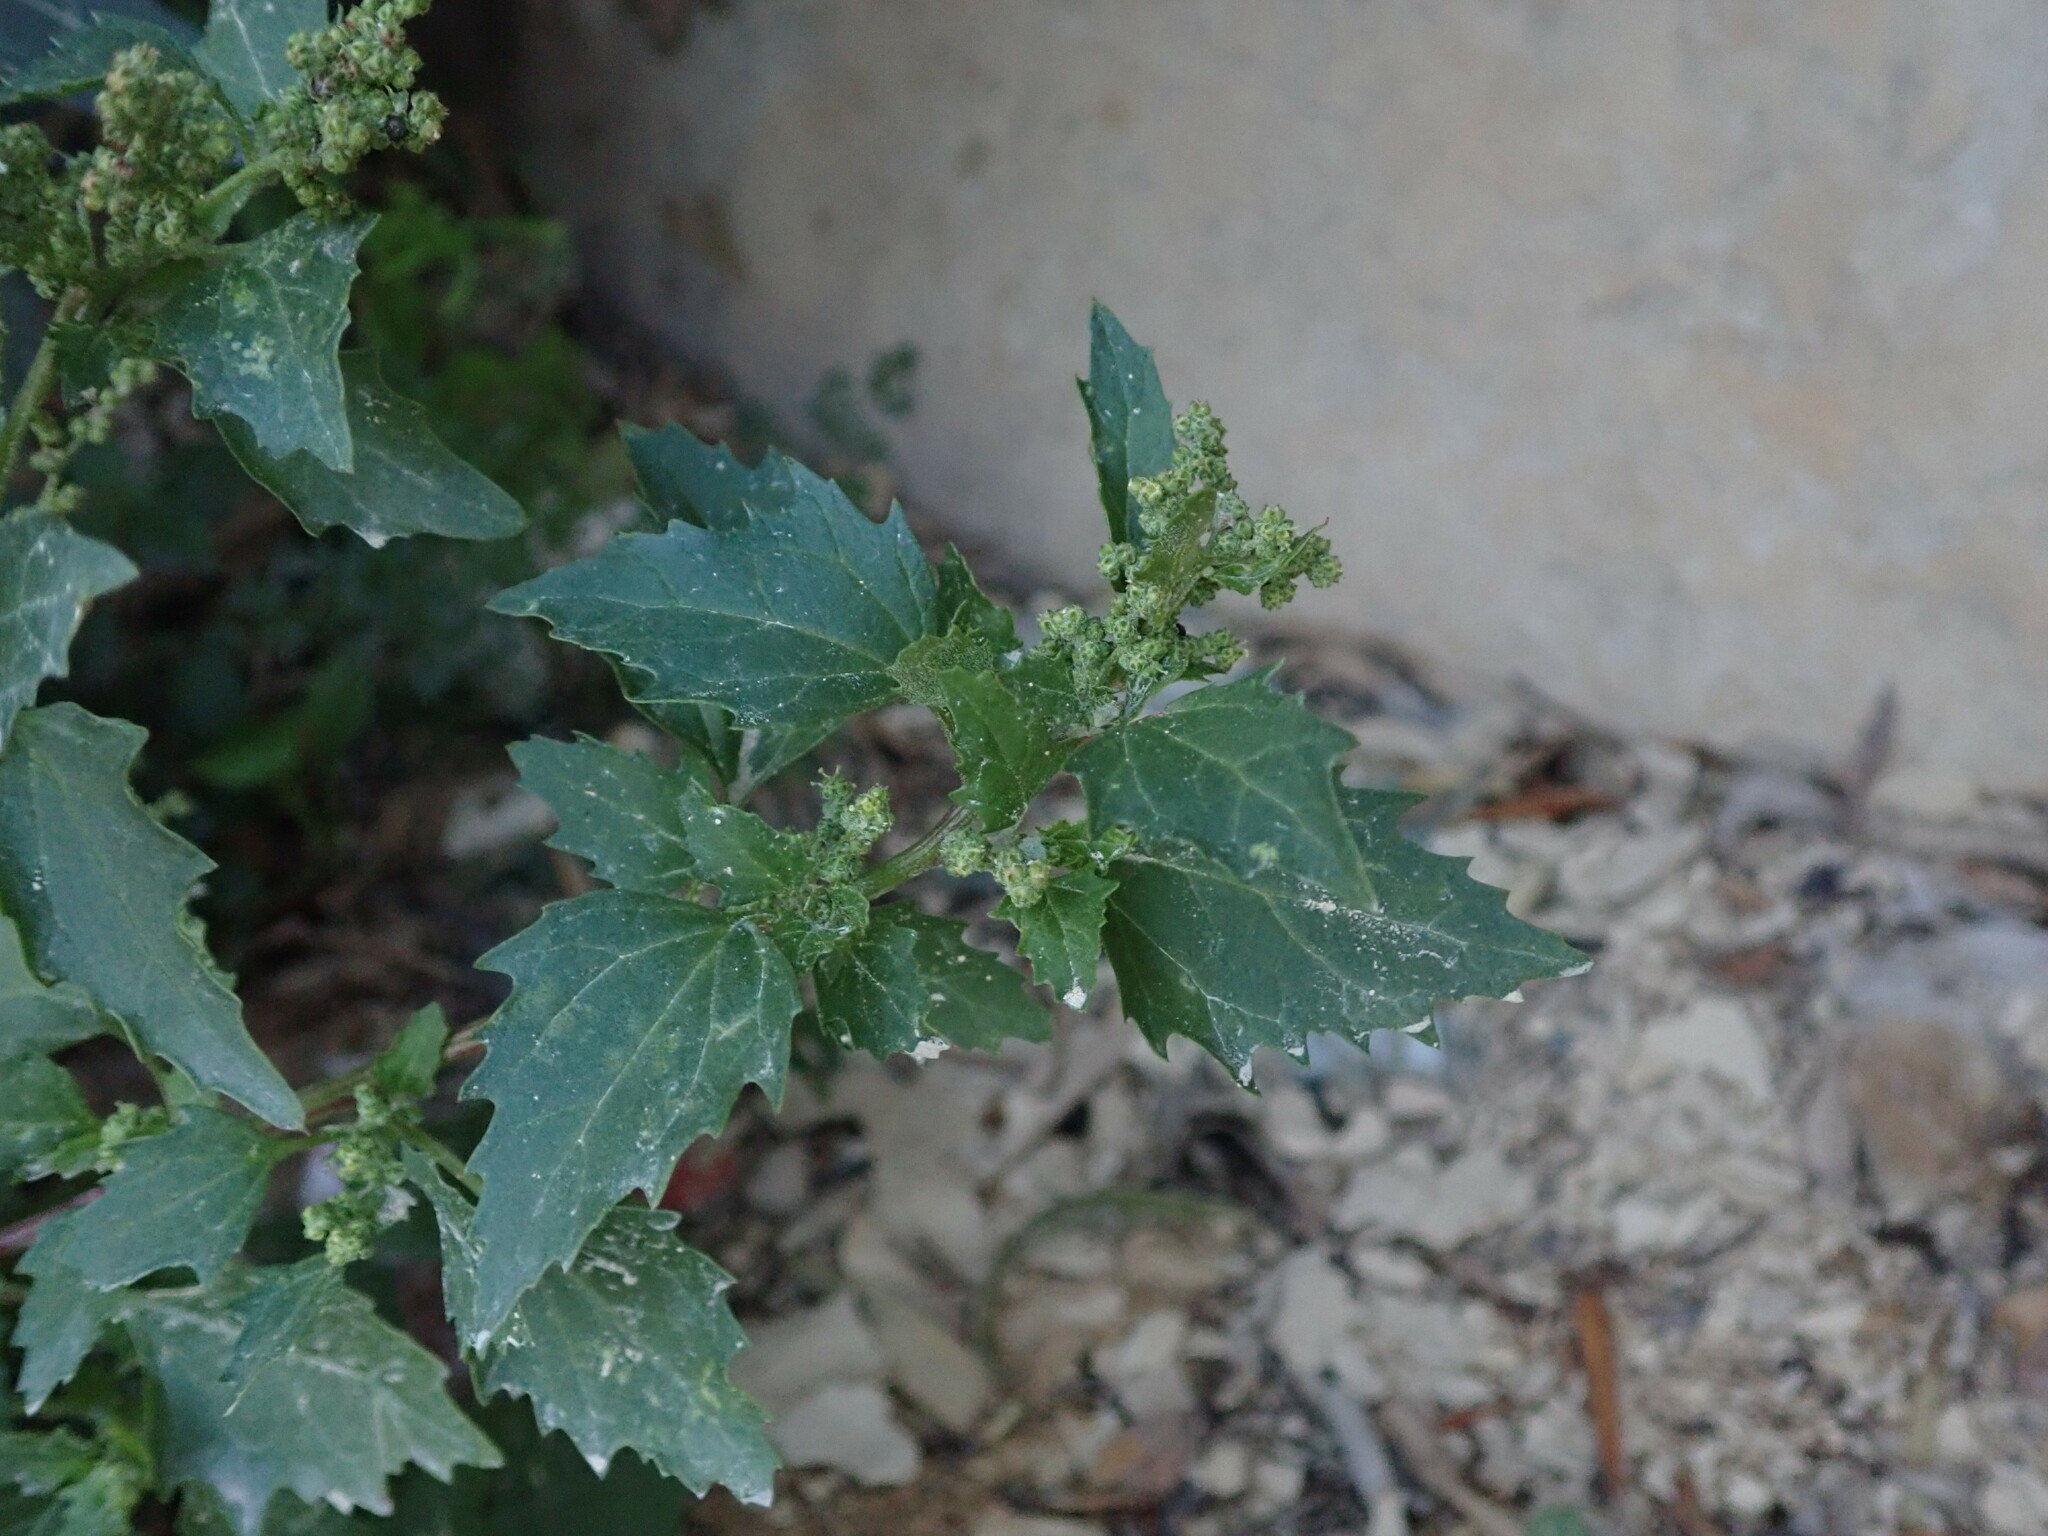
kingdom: Plantae
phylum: Tracheophyta
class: Magnoliopsida
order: Caryophyllales
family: Amaranthaceae
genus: Chenopodiastrum
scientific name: Chenopodiastrum murale
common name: Sowbane
